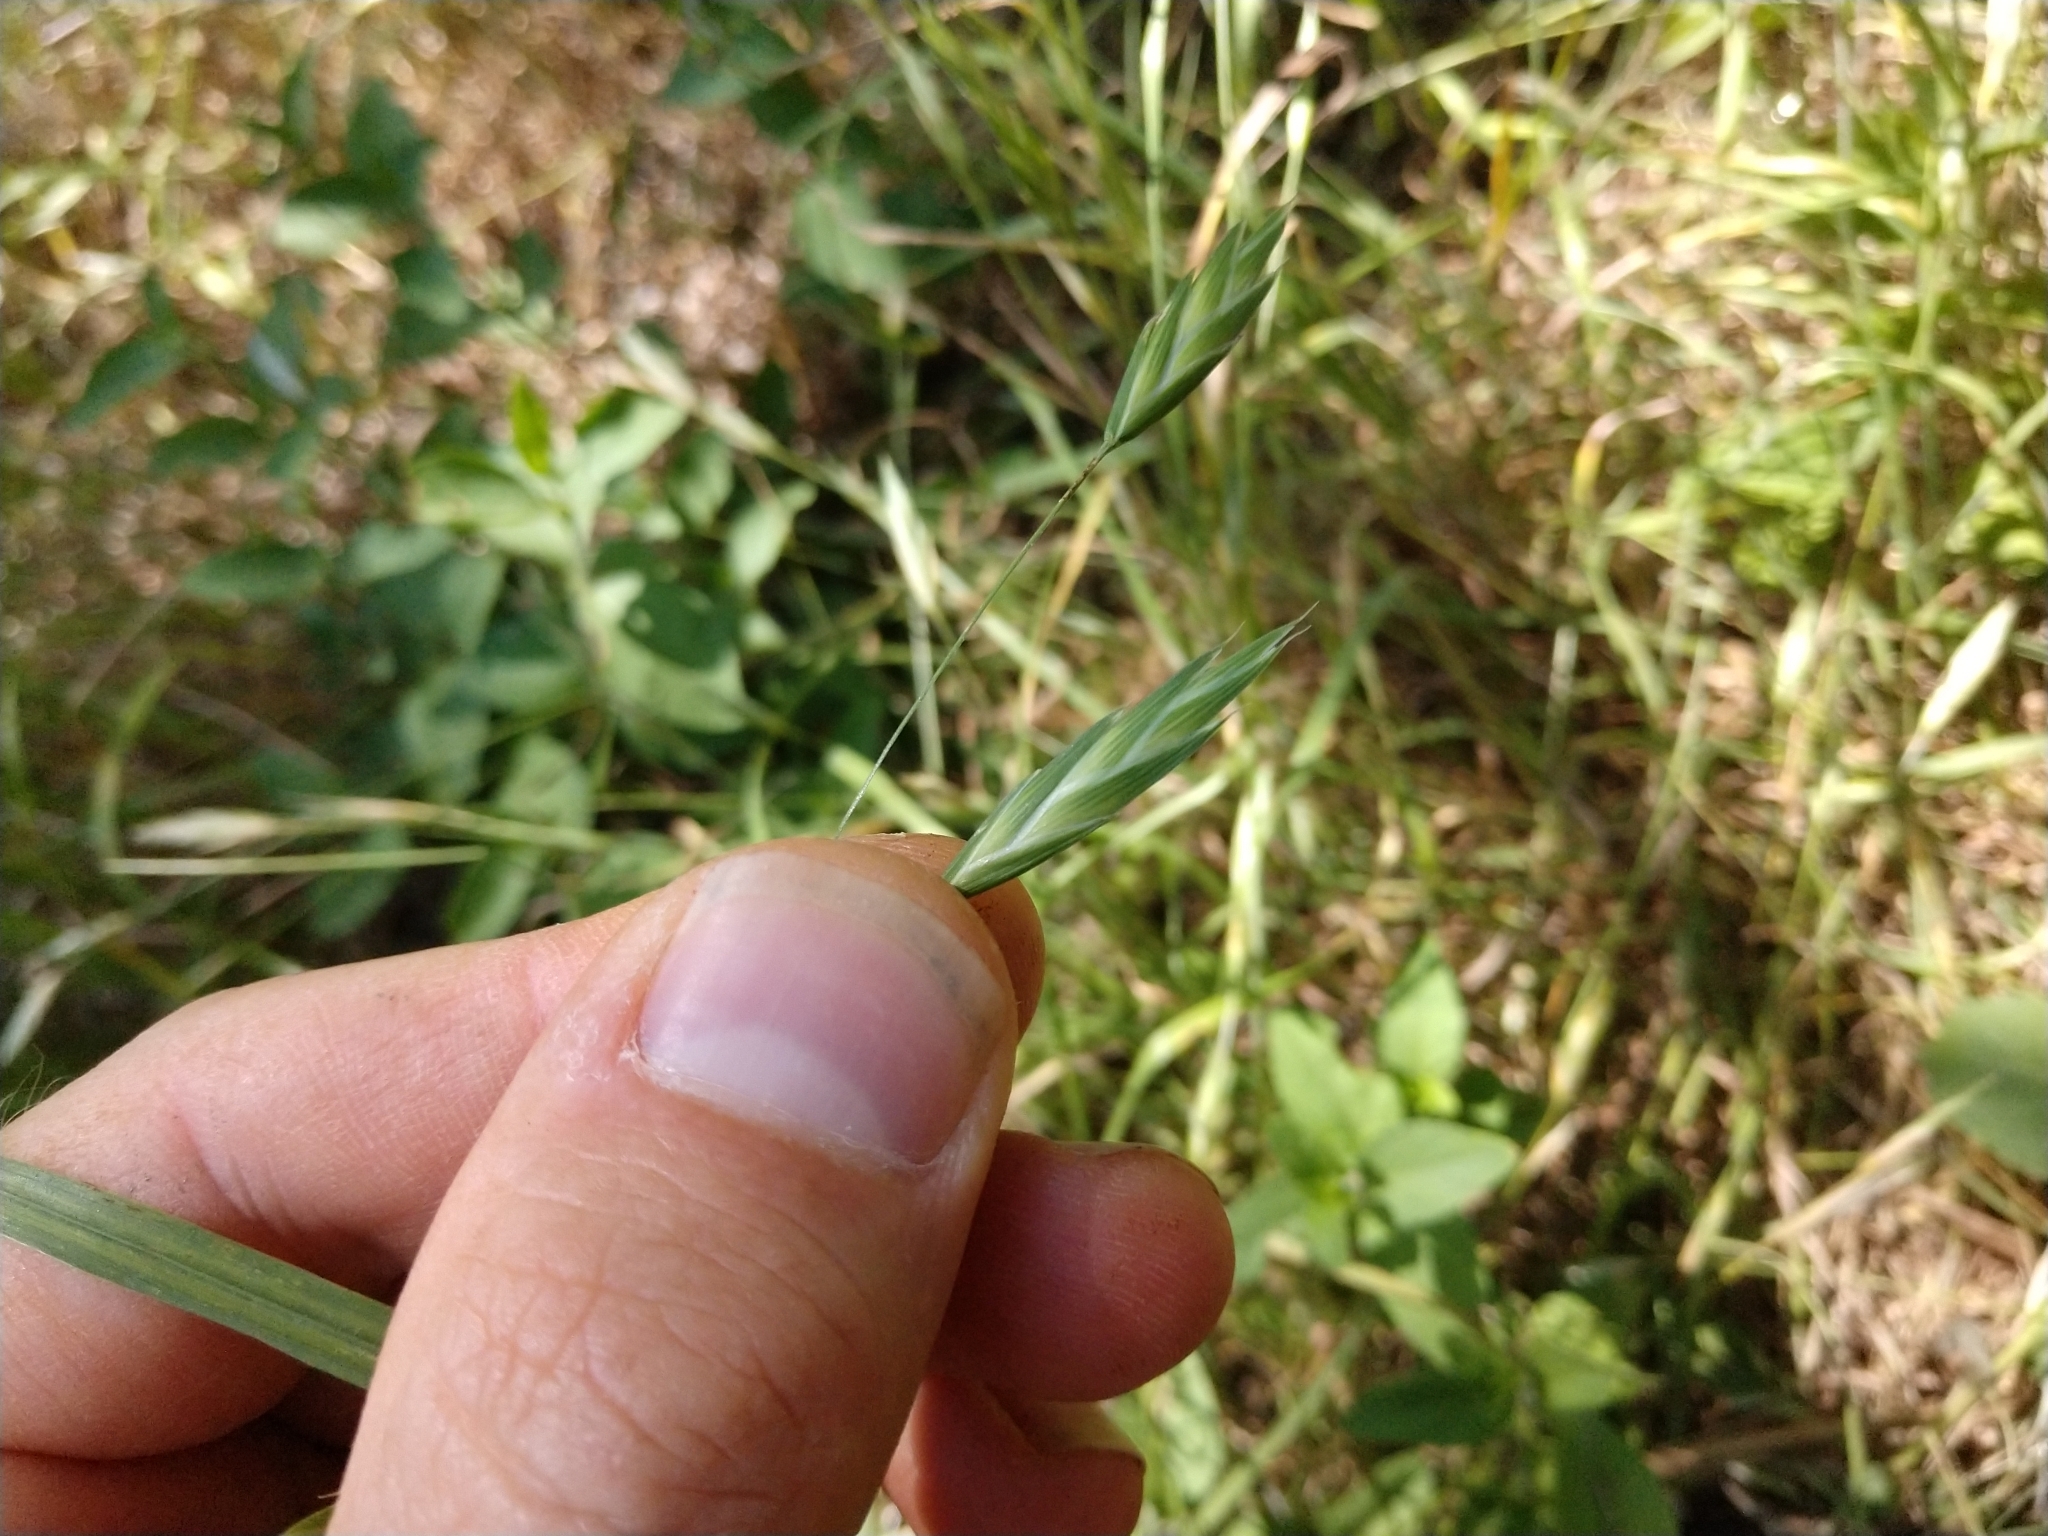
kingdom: Plantae
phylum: Tracheophyta
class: Liliopsida
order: Poales
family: Poaceae
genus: Bromus
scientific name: Bromus catharticus
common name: Rescuegrass
